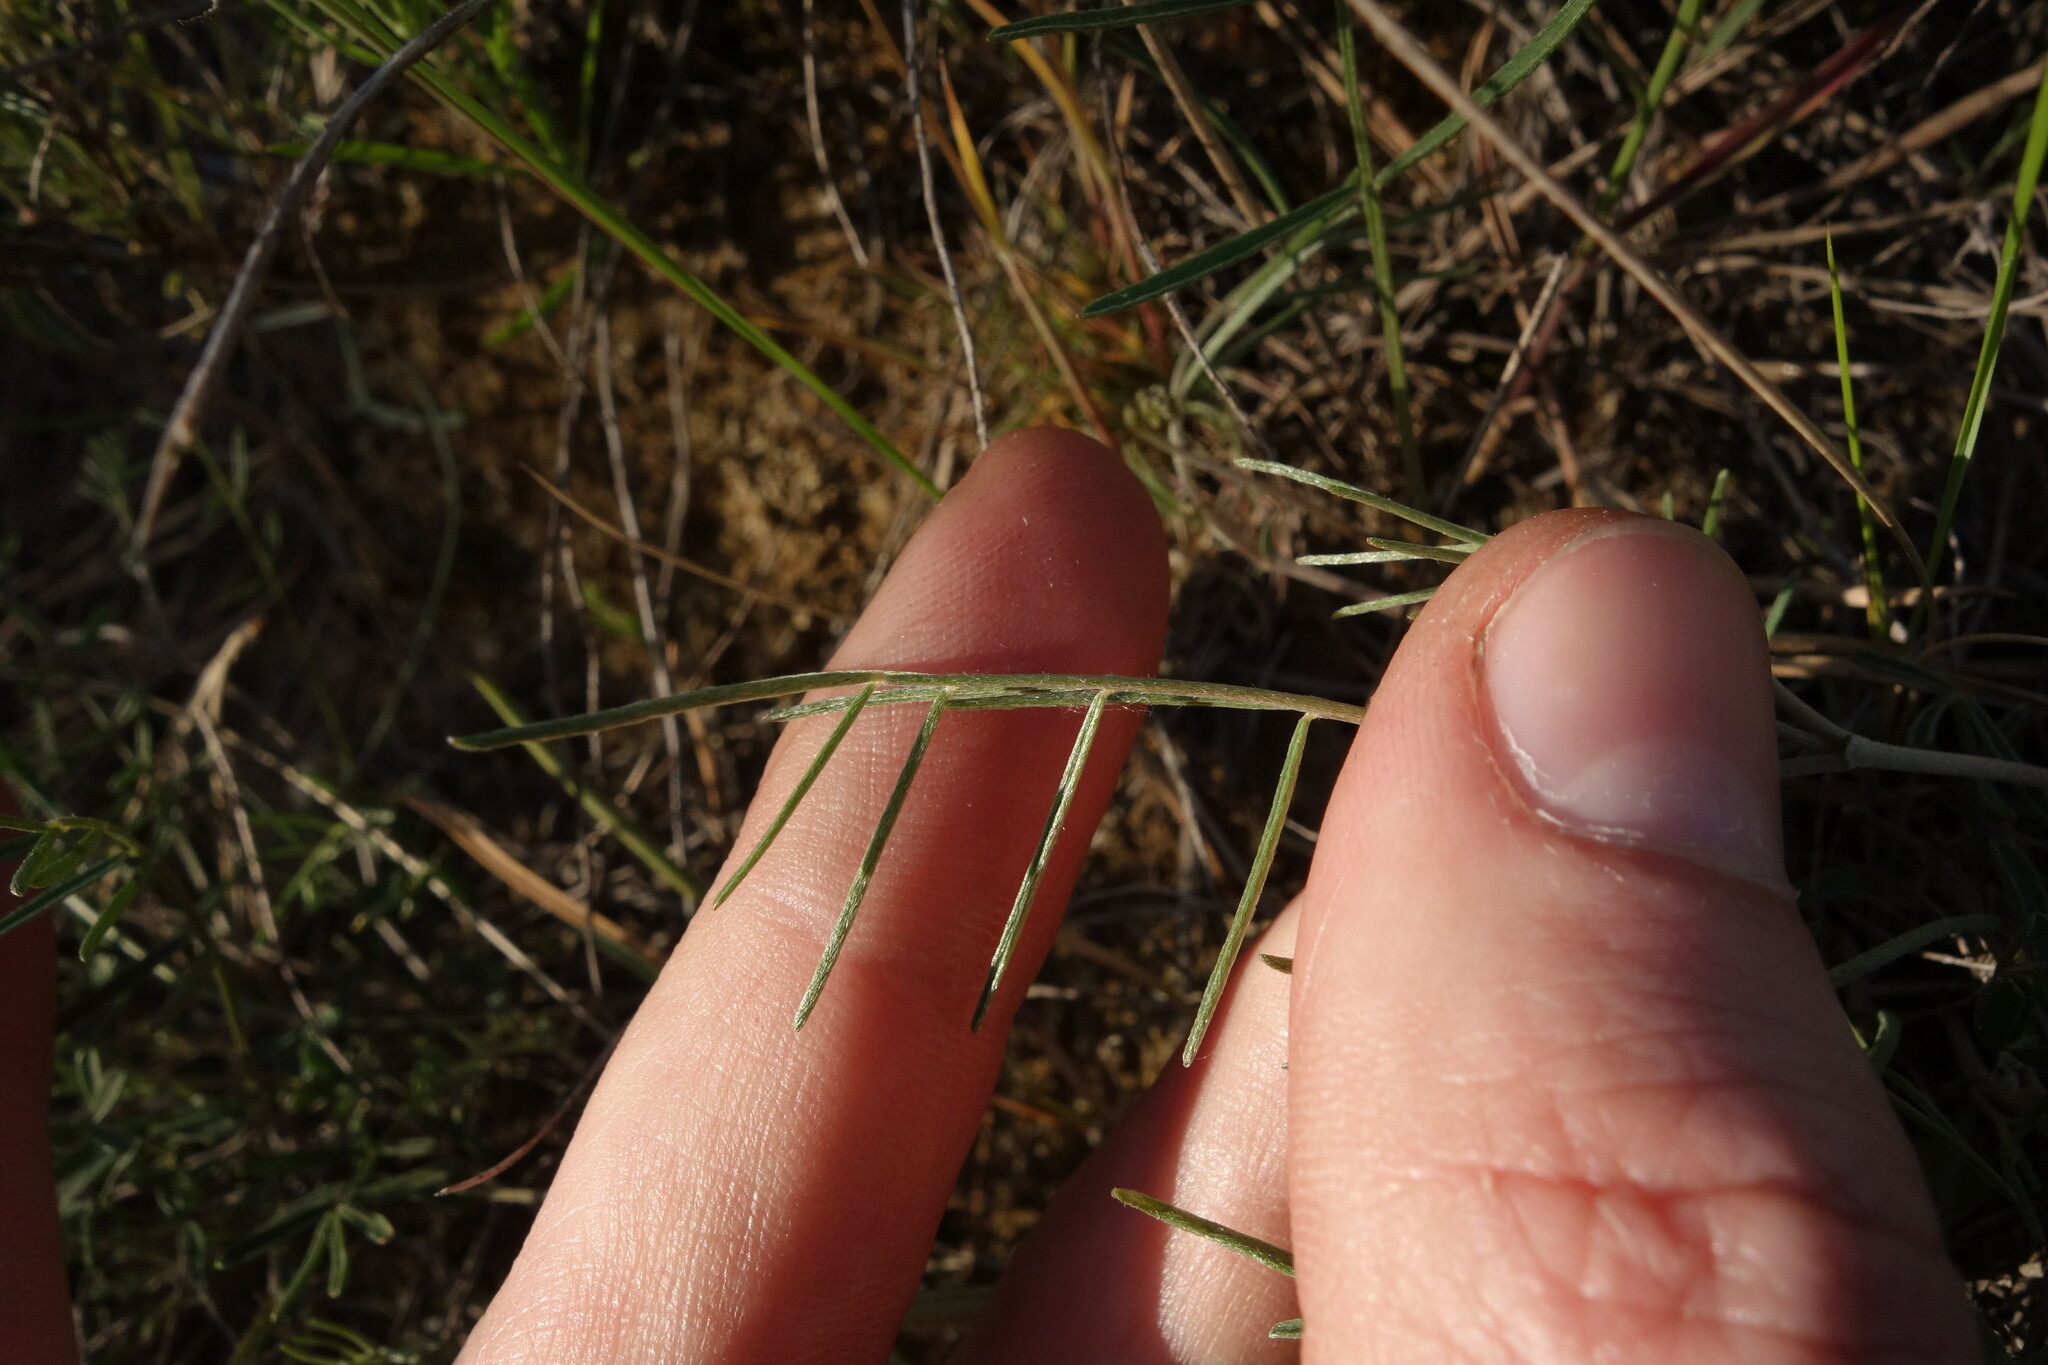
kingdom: Plantae
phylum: Tracheophyta
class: Magnoliopsida
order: Fabales
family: Fabaceae
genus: Astragalus
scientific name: Astragalus ucrainicus
